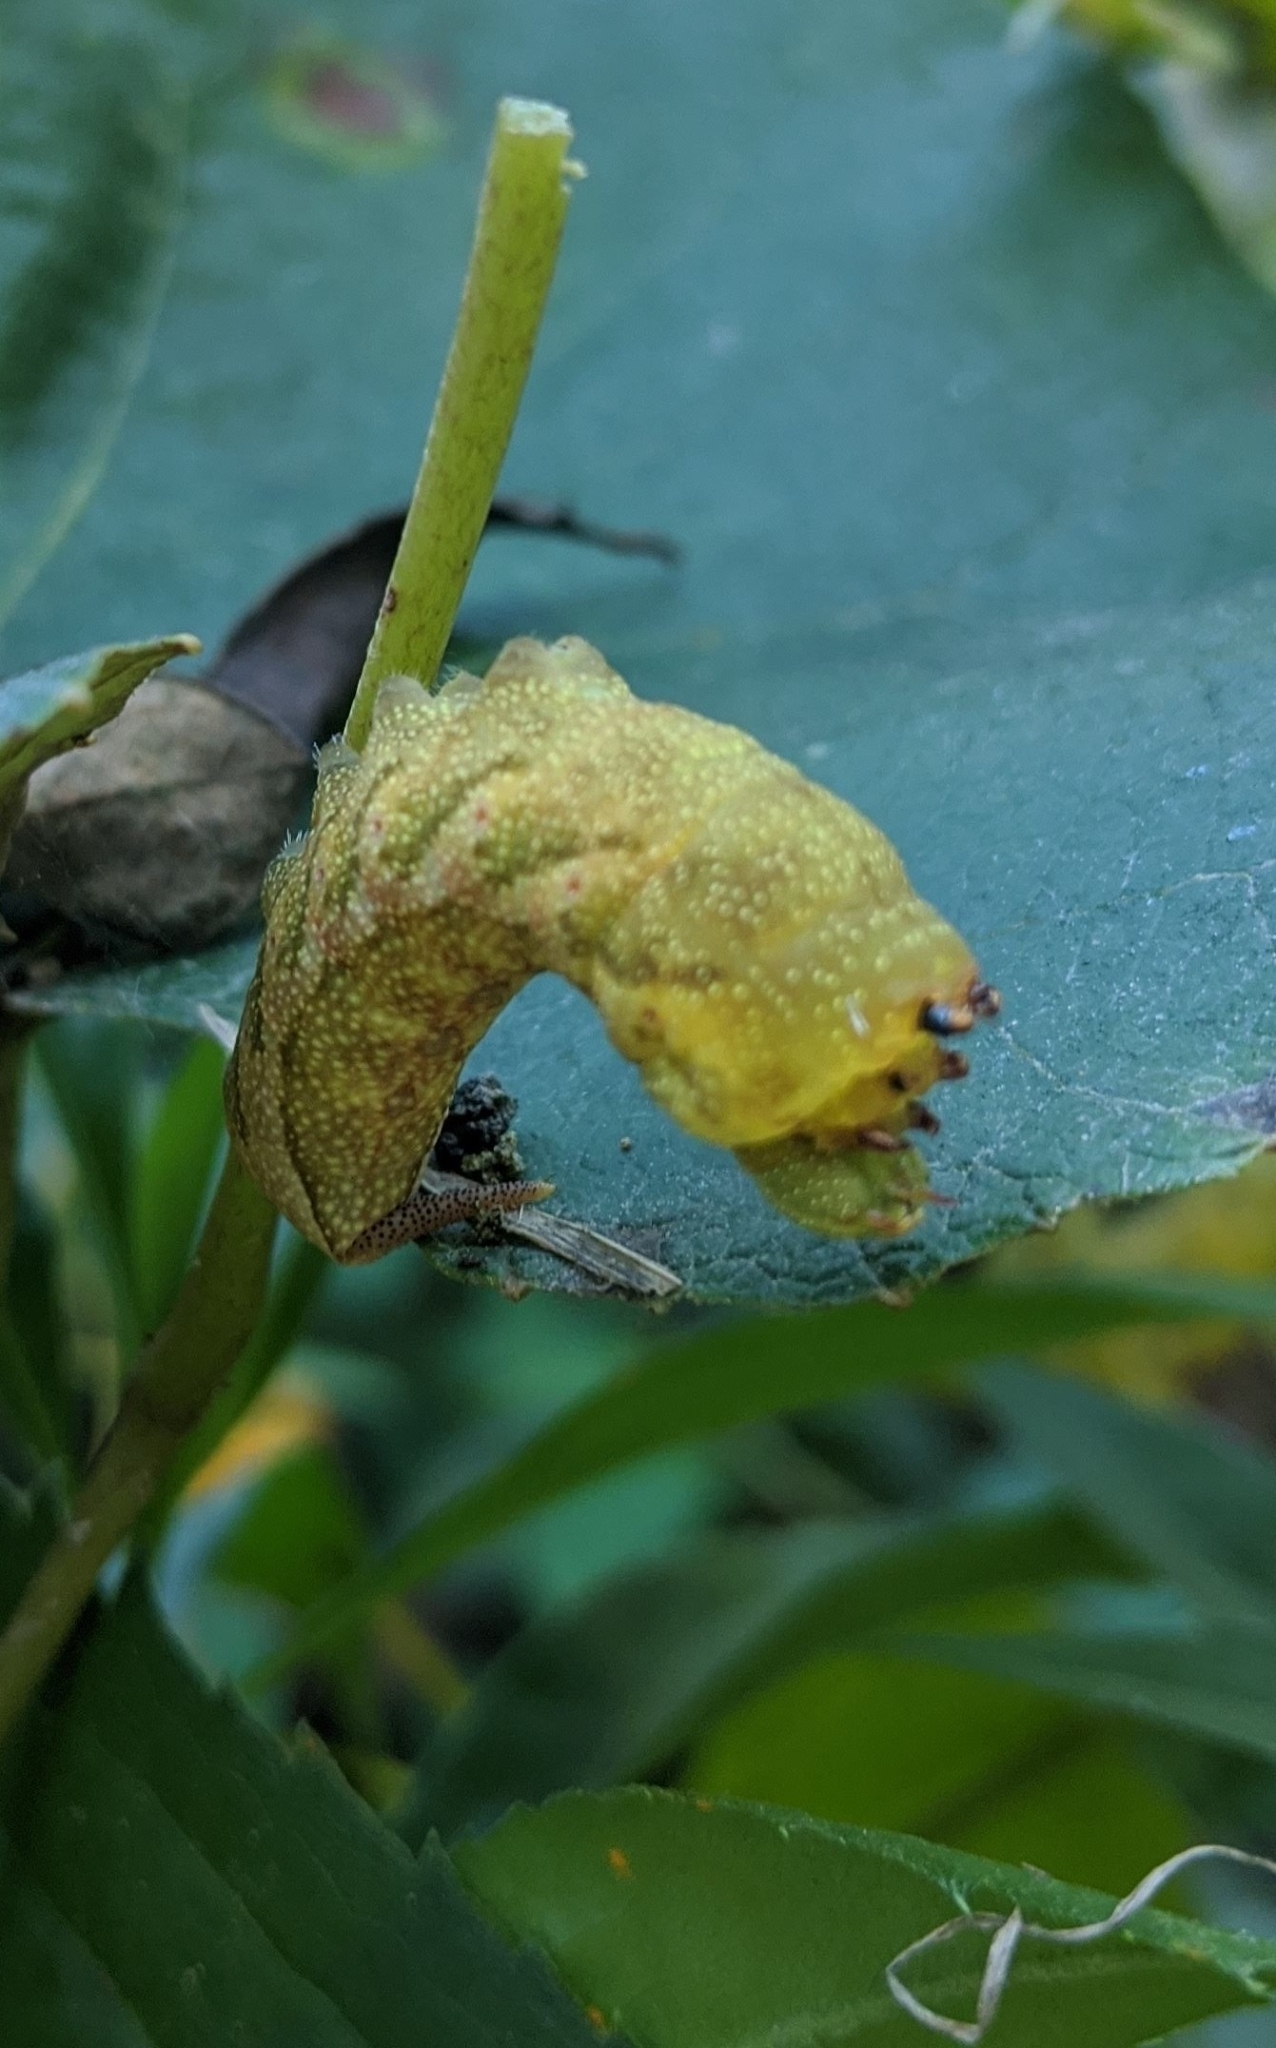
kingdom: Animalia
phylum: Arthropoda
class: Insecta
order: Lepidoptera
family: Sphingidae
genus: Darapsa
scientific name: Darapsa myron
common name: Hog sphinx
